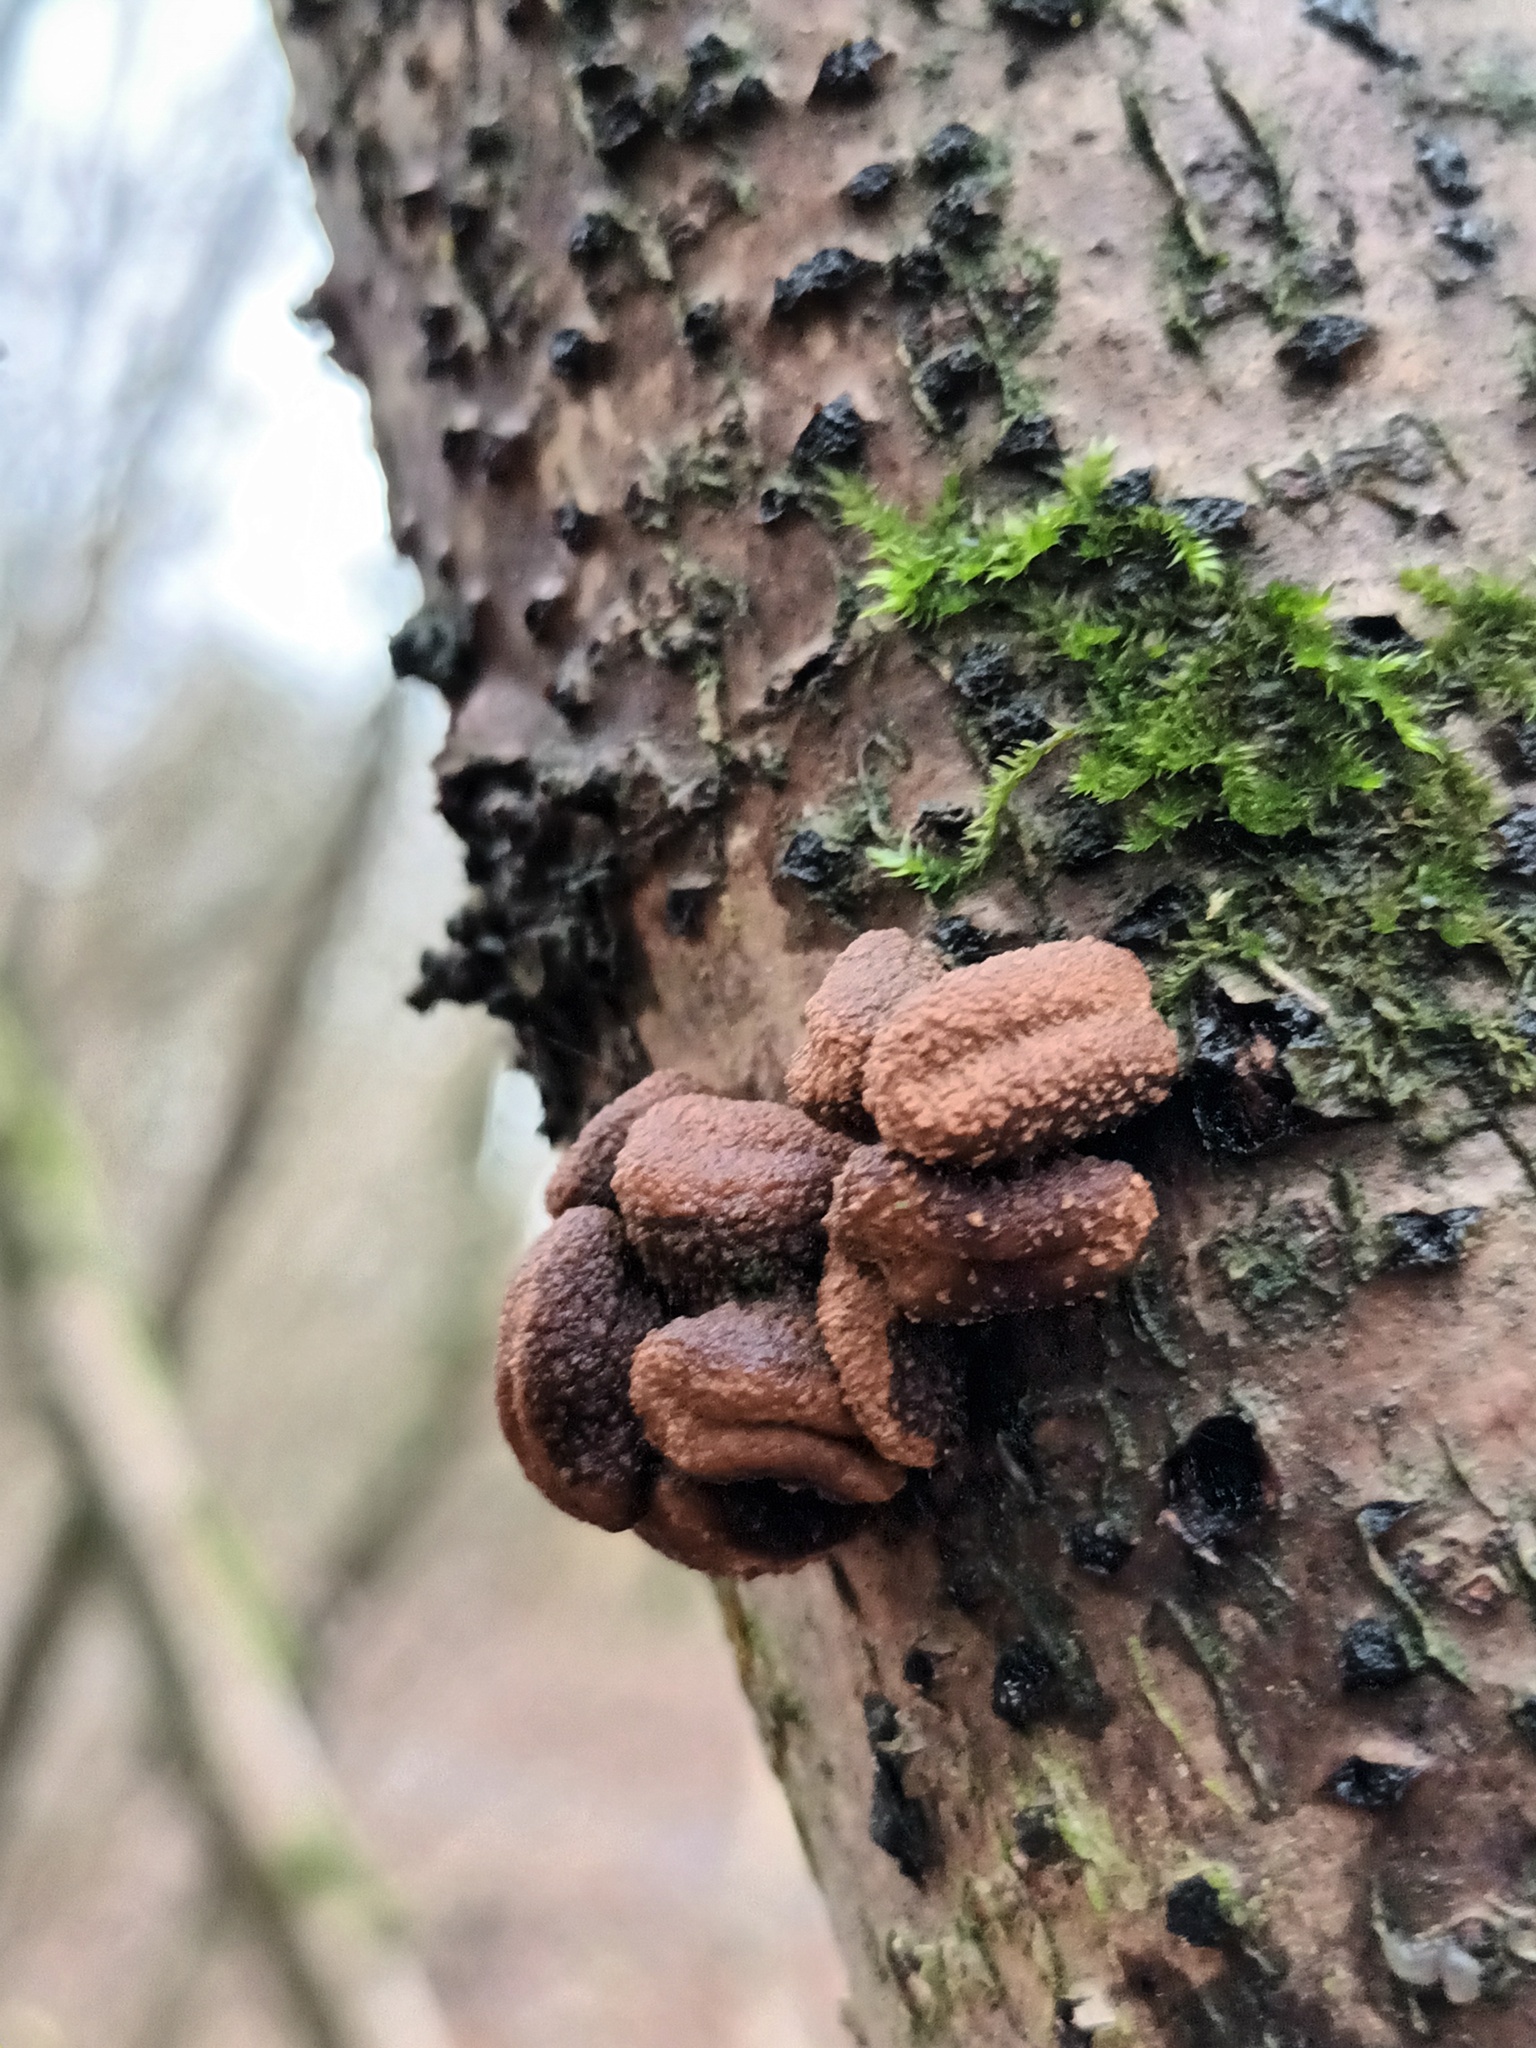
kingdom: Fungi
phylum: Ascomycota
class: Leotiomycetes
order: Helotiales
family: Cenangiaceae
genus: Encoelia
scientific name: Encoelia furfuracea
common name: Spring hazelcup
